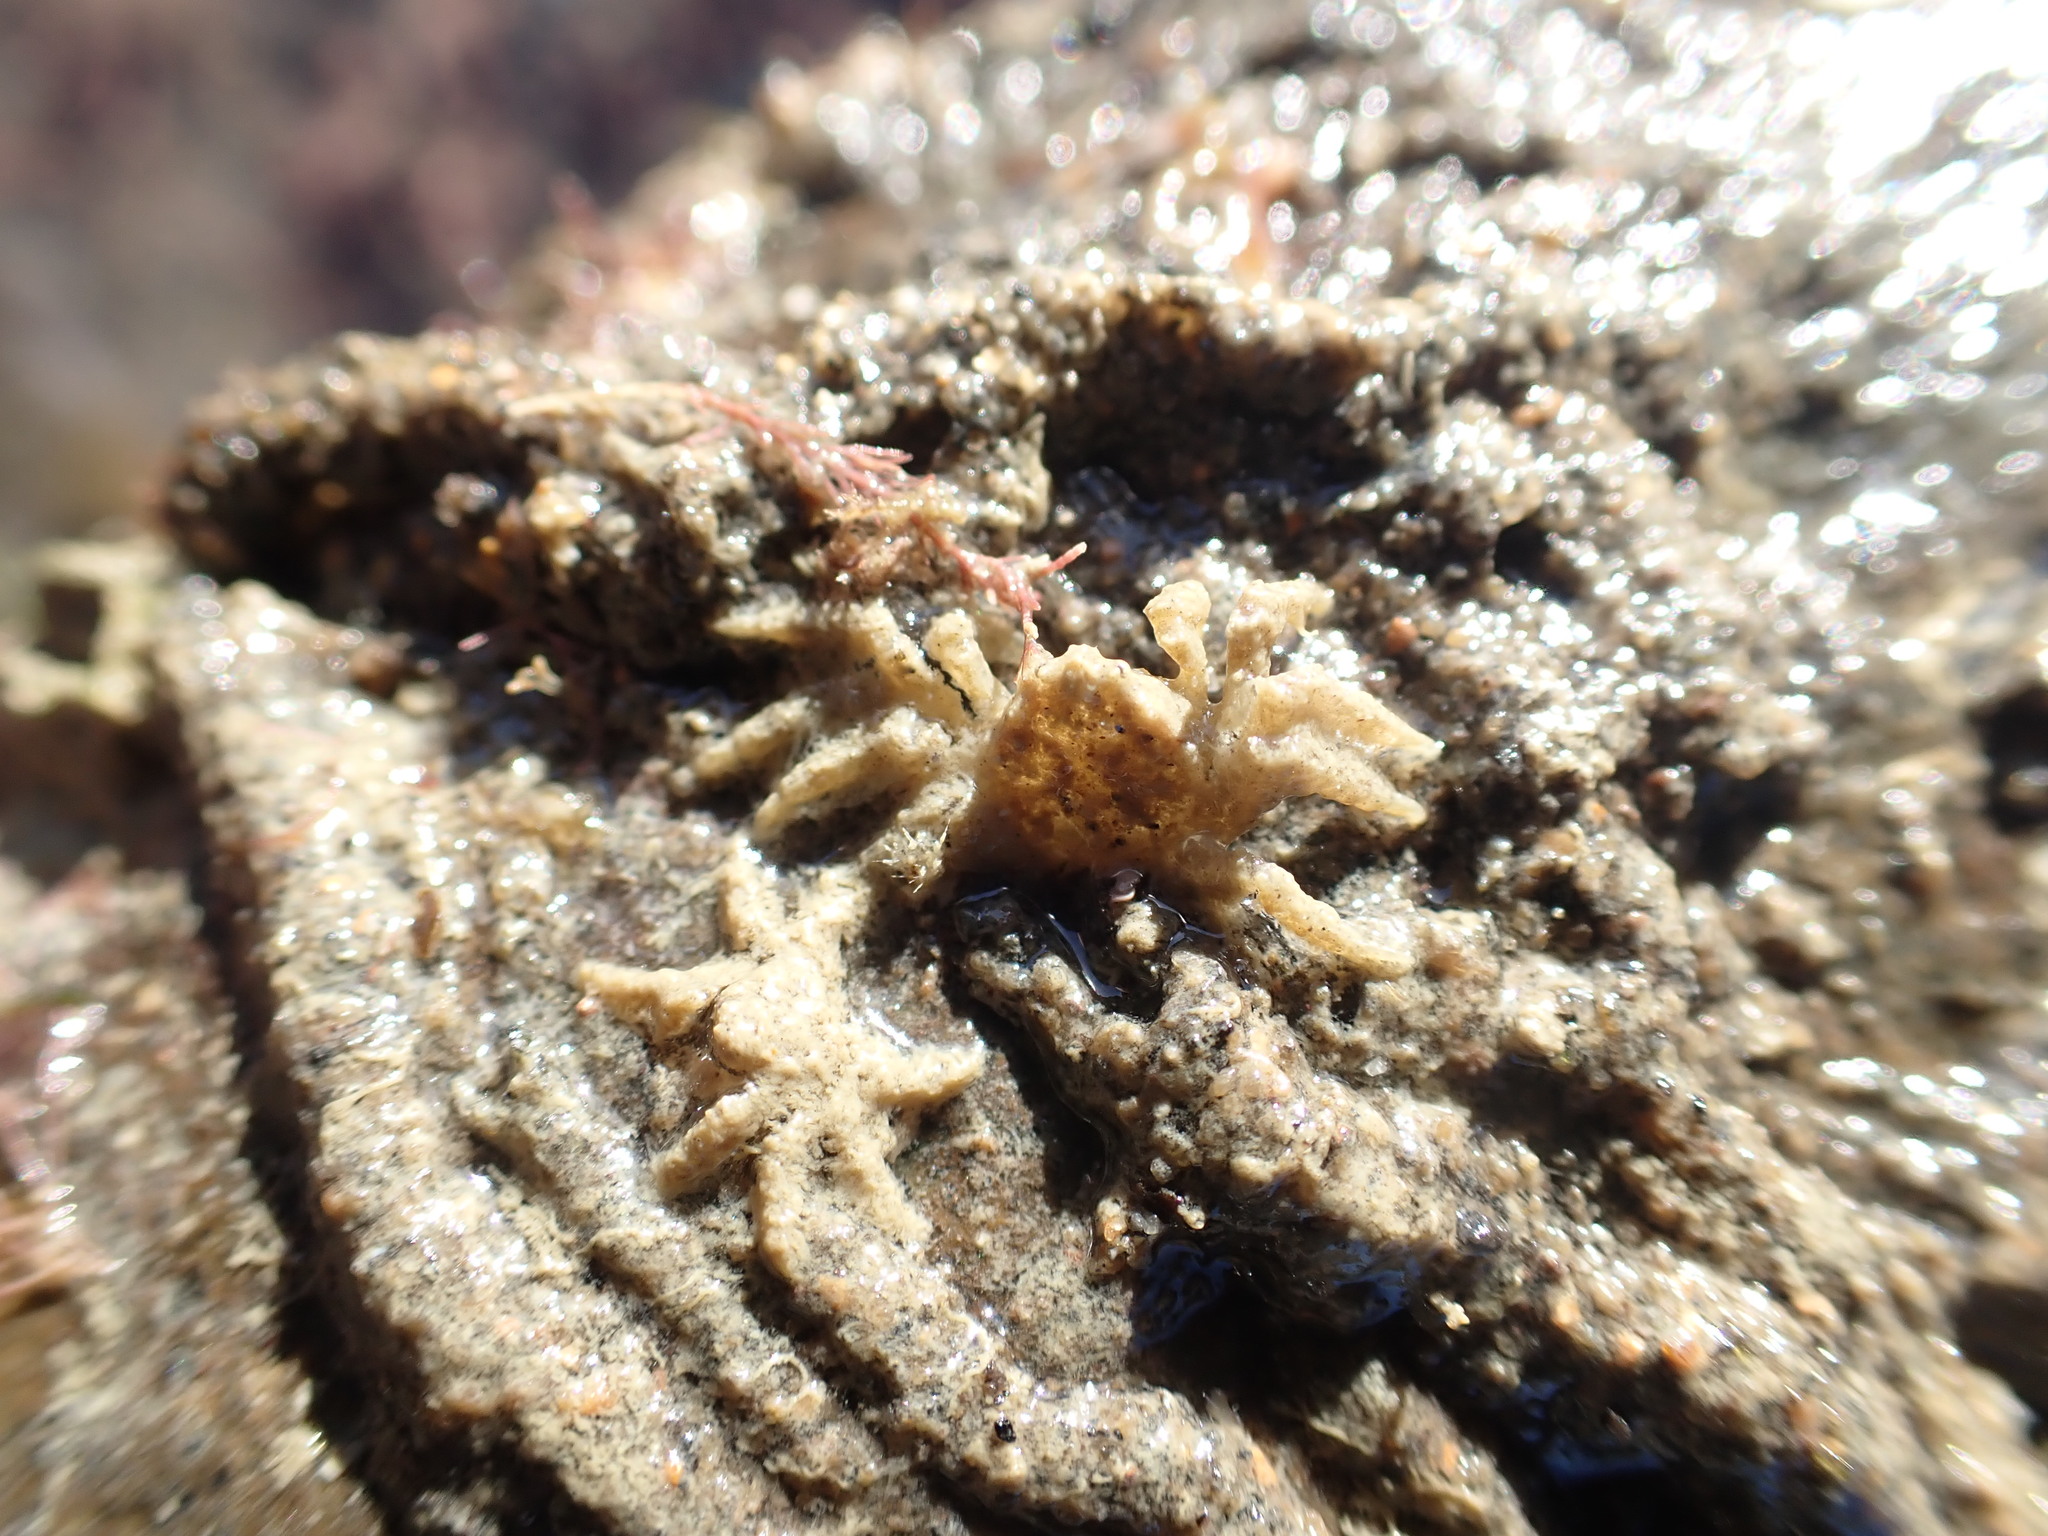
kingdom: Animalia
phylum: Arthropoda
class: Malacostraca
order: Decapoda
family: Hymenosomatidae
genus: Neohymenicus
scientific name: Neohymenicus pubescens
